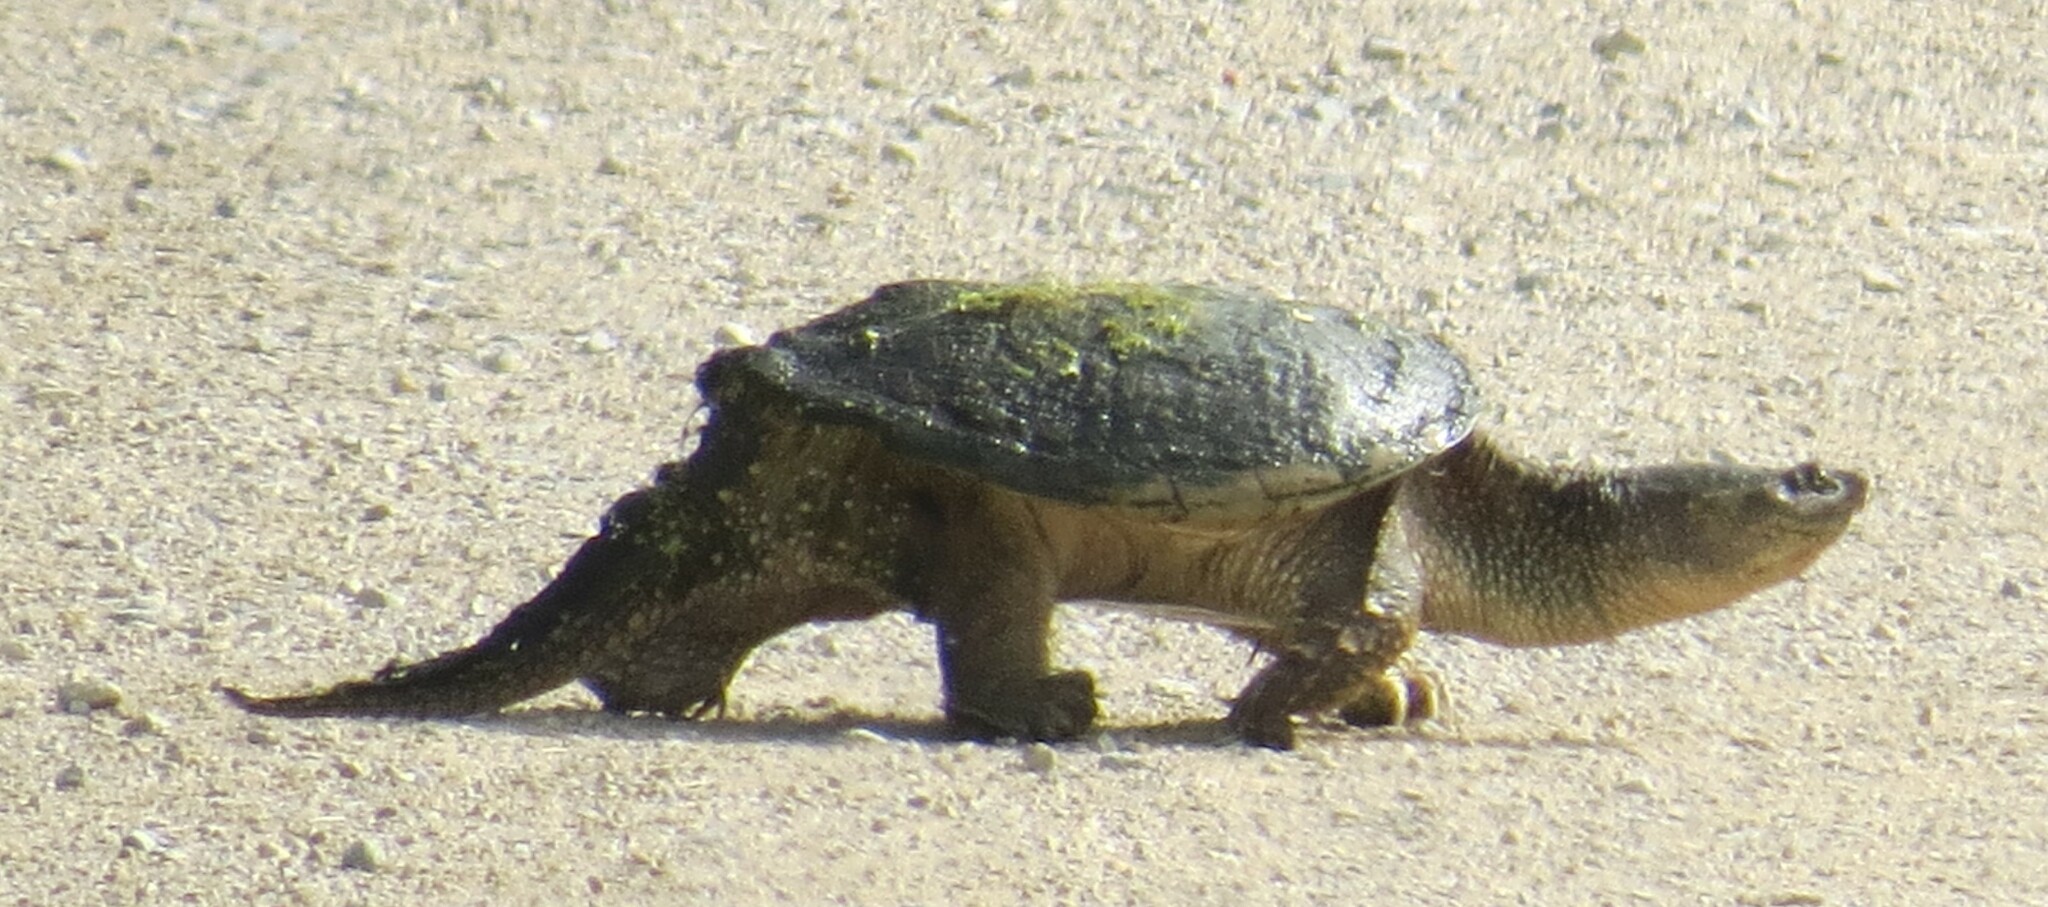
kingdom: Animalia
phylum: Chordata
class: Testudines
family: Chelydridae
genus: Chelydra
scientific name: Chelydra serpentina
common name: Common snapping turtle
